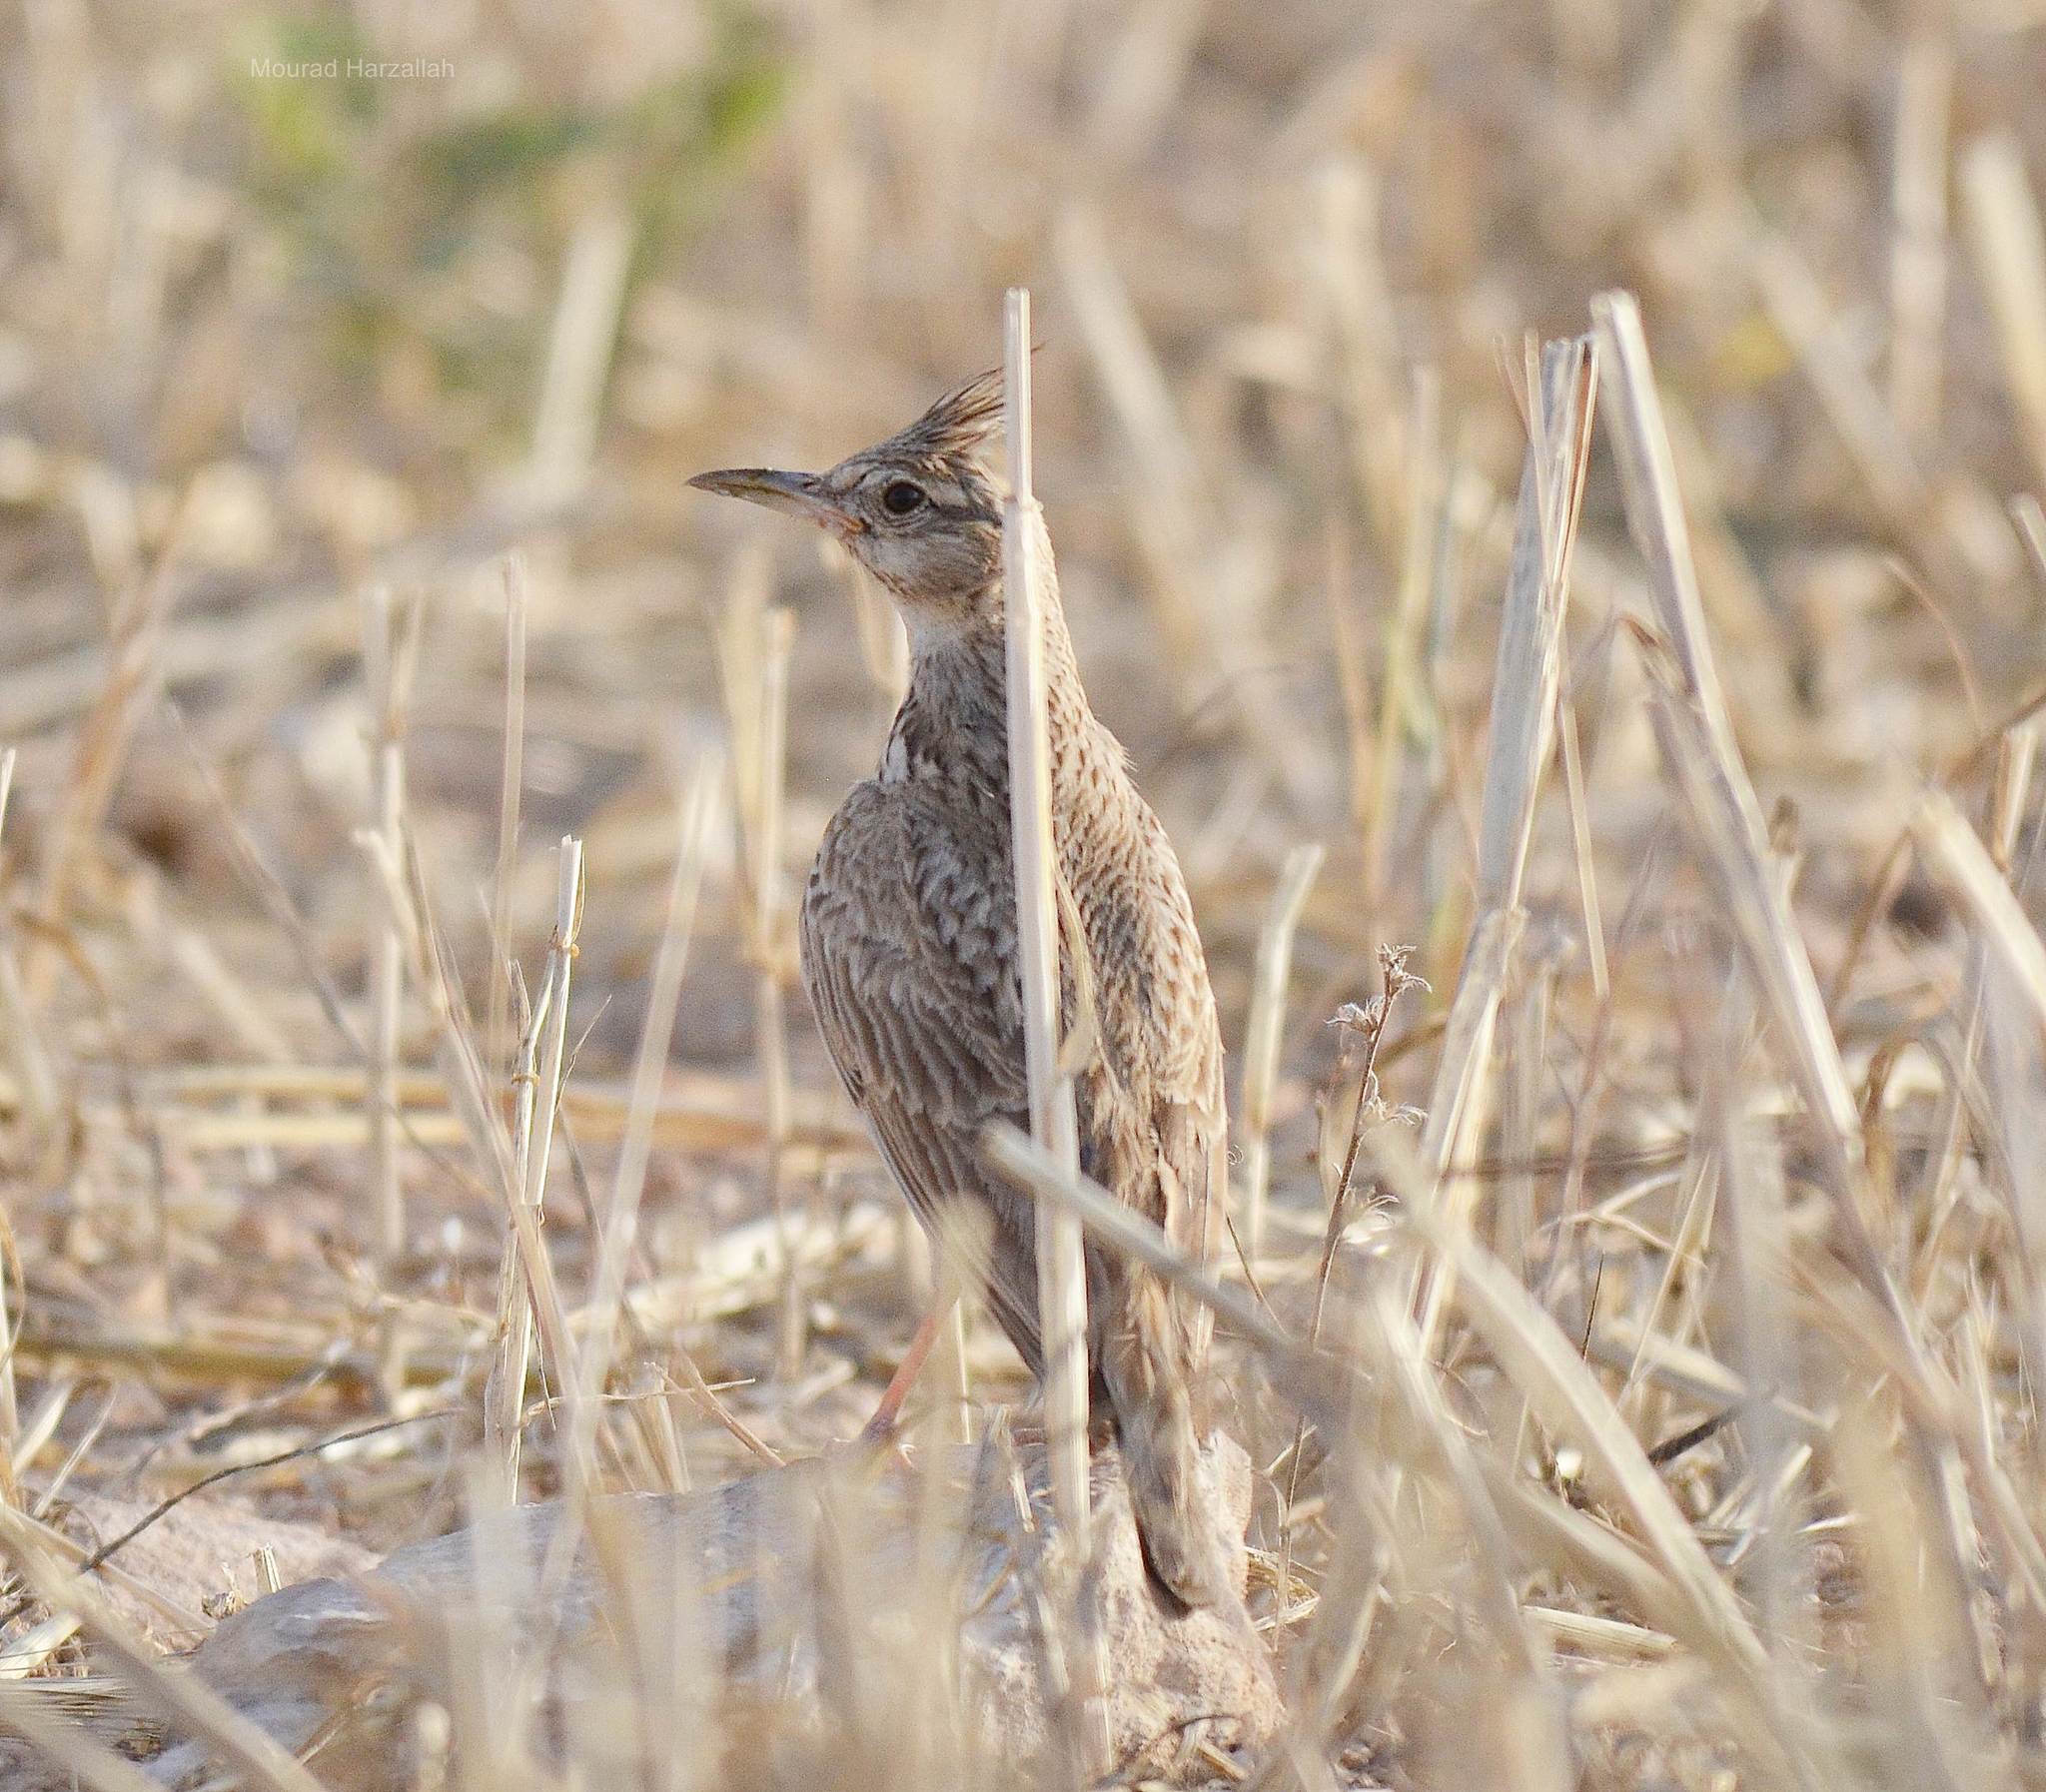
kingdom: Animalia
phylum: Chordata
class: Aves
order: Passeriformes
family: Alaudidae
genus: Galerida
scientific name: Galerida cristata
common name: Crested lark
